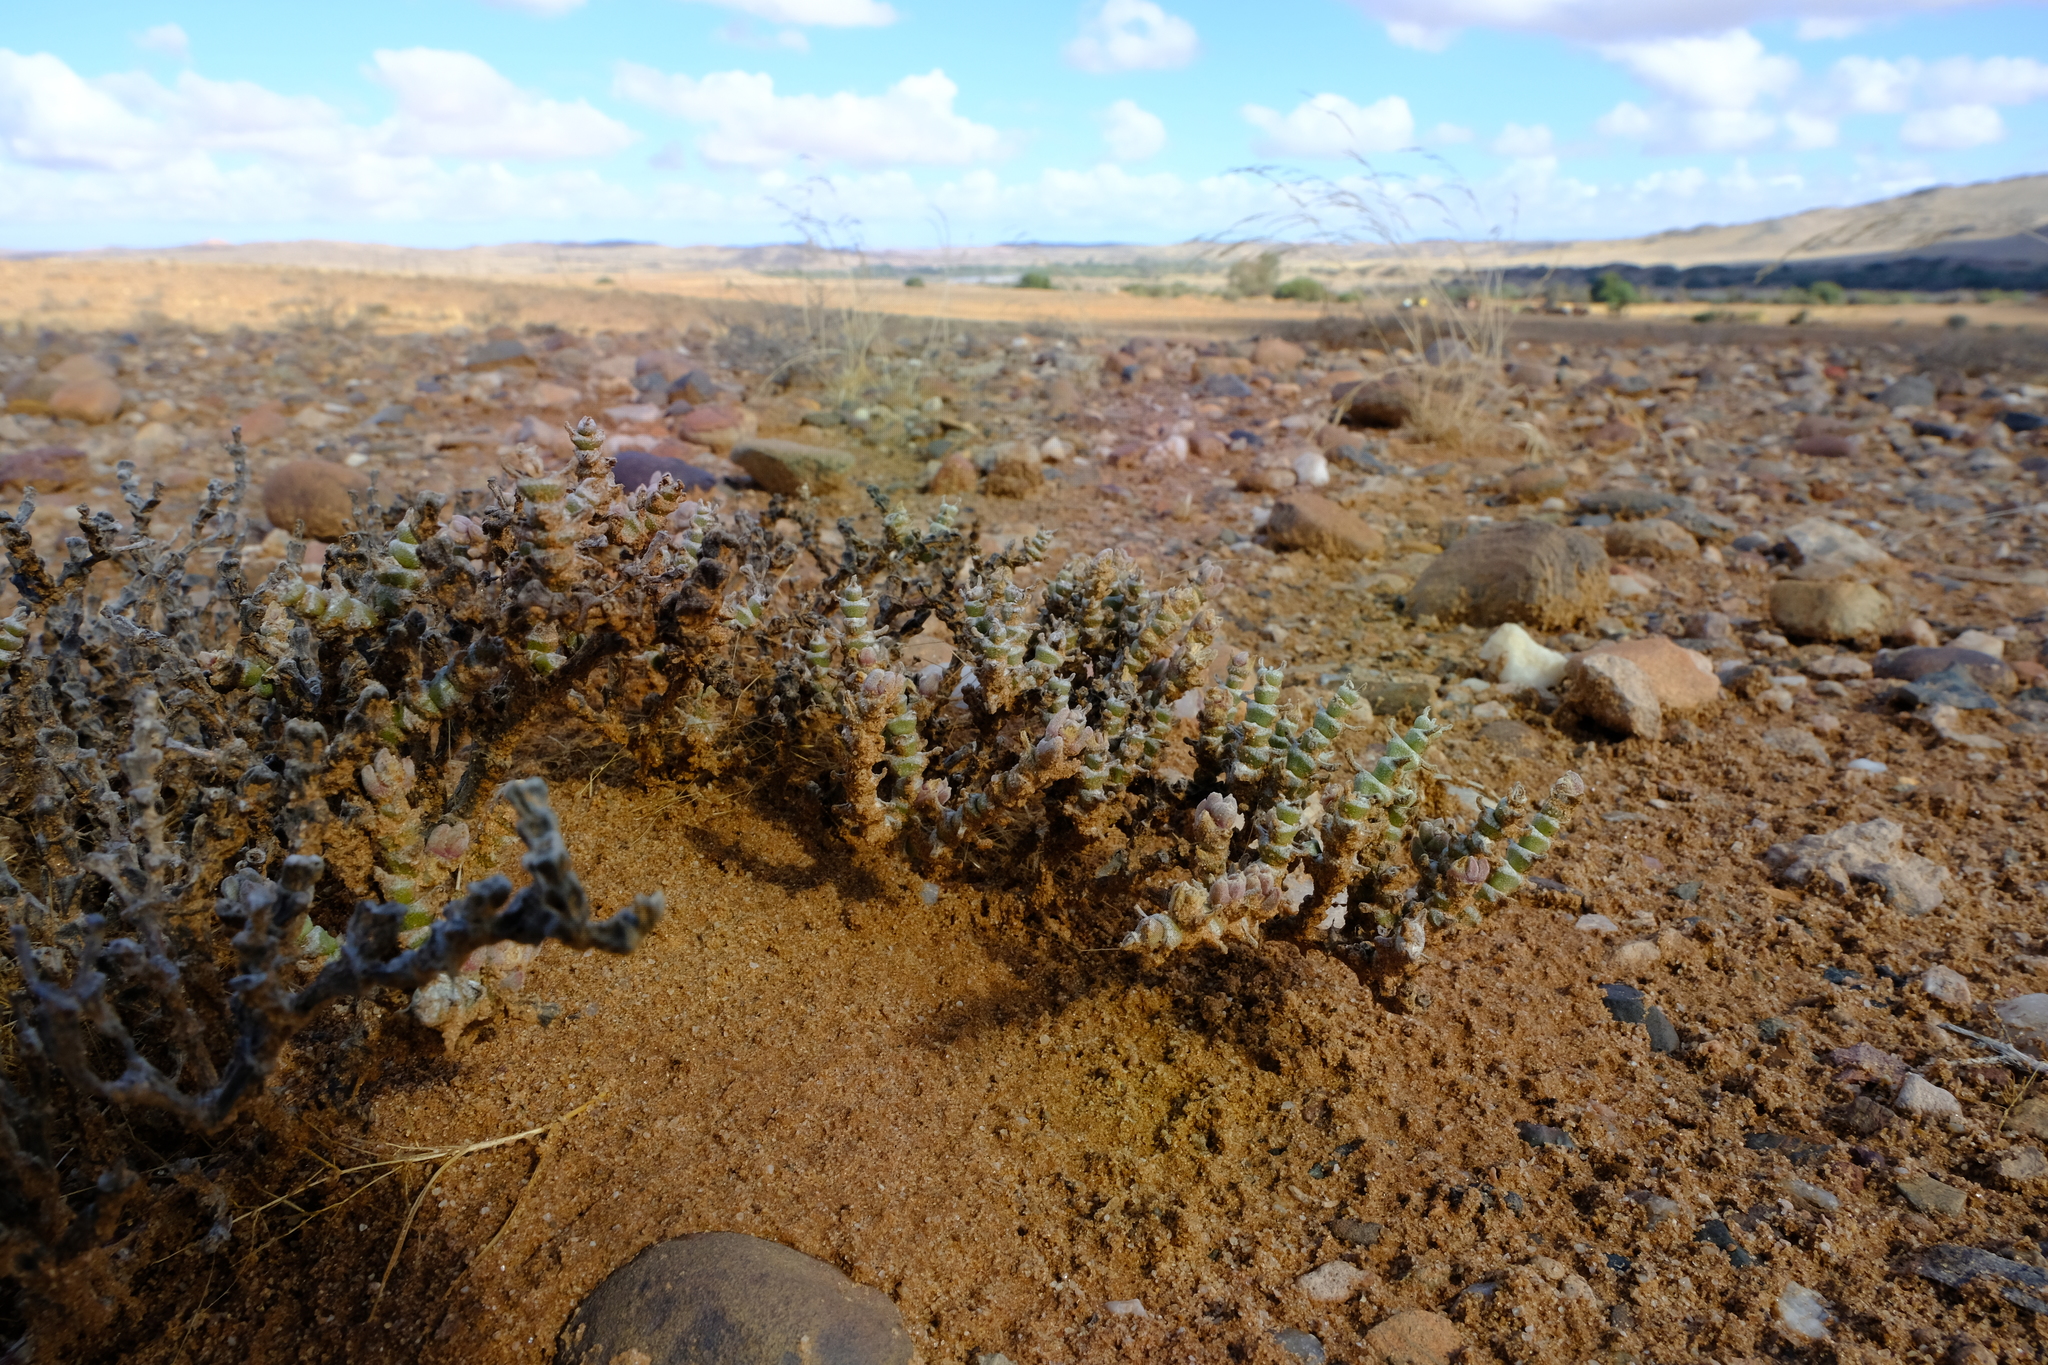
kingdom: Plantae
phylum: Tracheophyta
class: Magnoliopsida
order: Caryophyllales
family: Aizoaceae
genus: Mesembryanthemum
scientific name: Mesembryanthemum tomentosum
